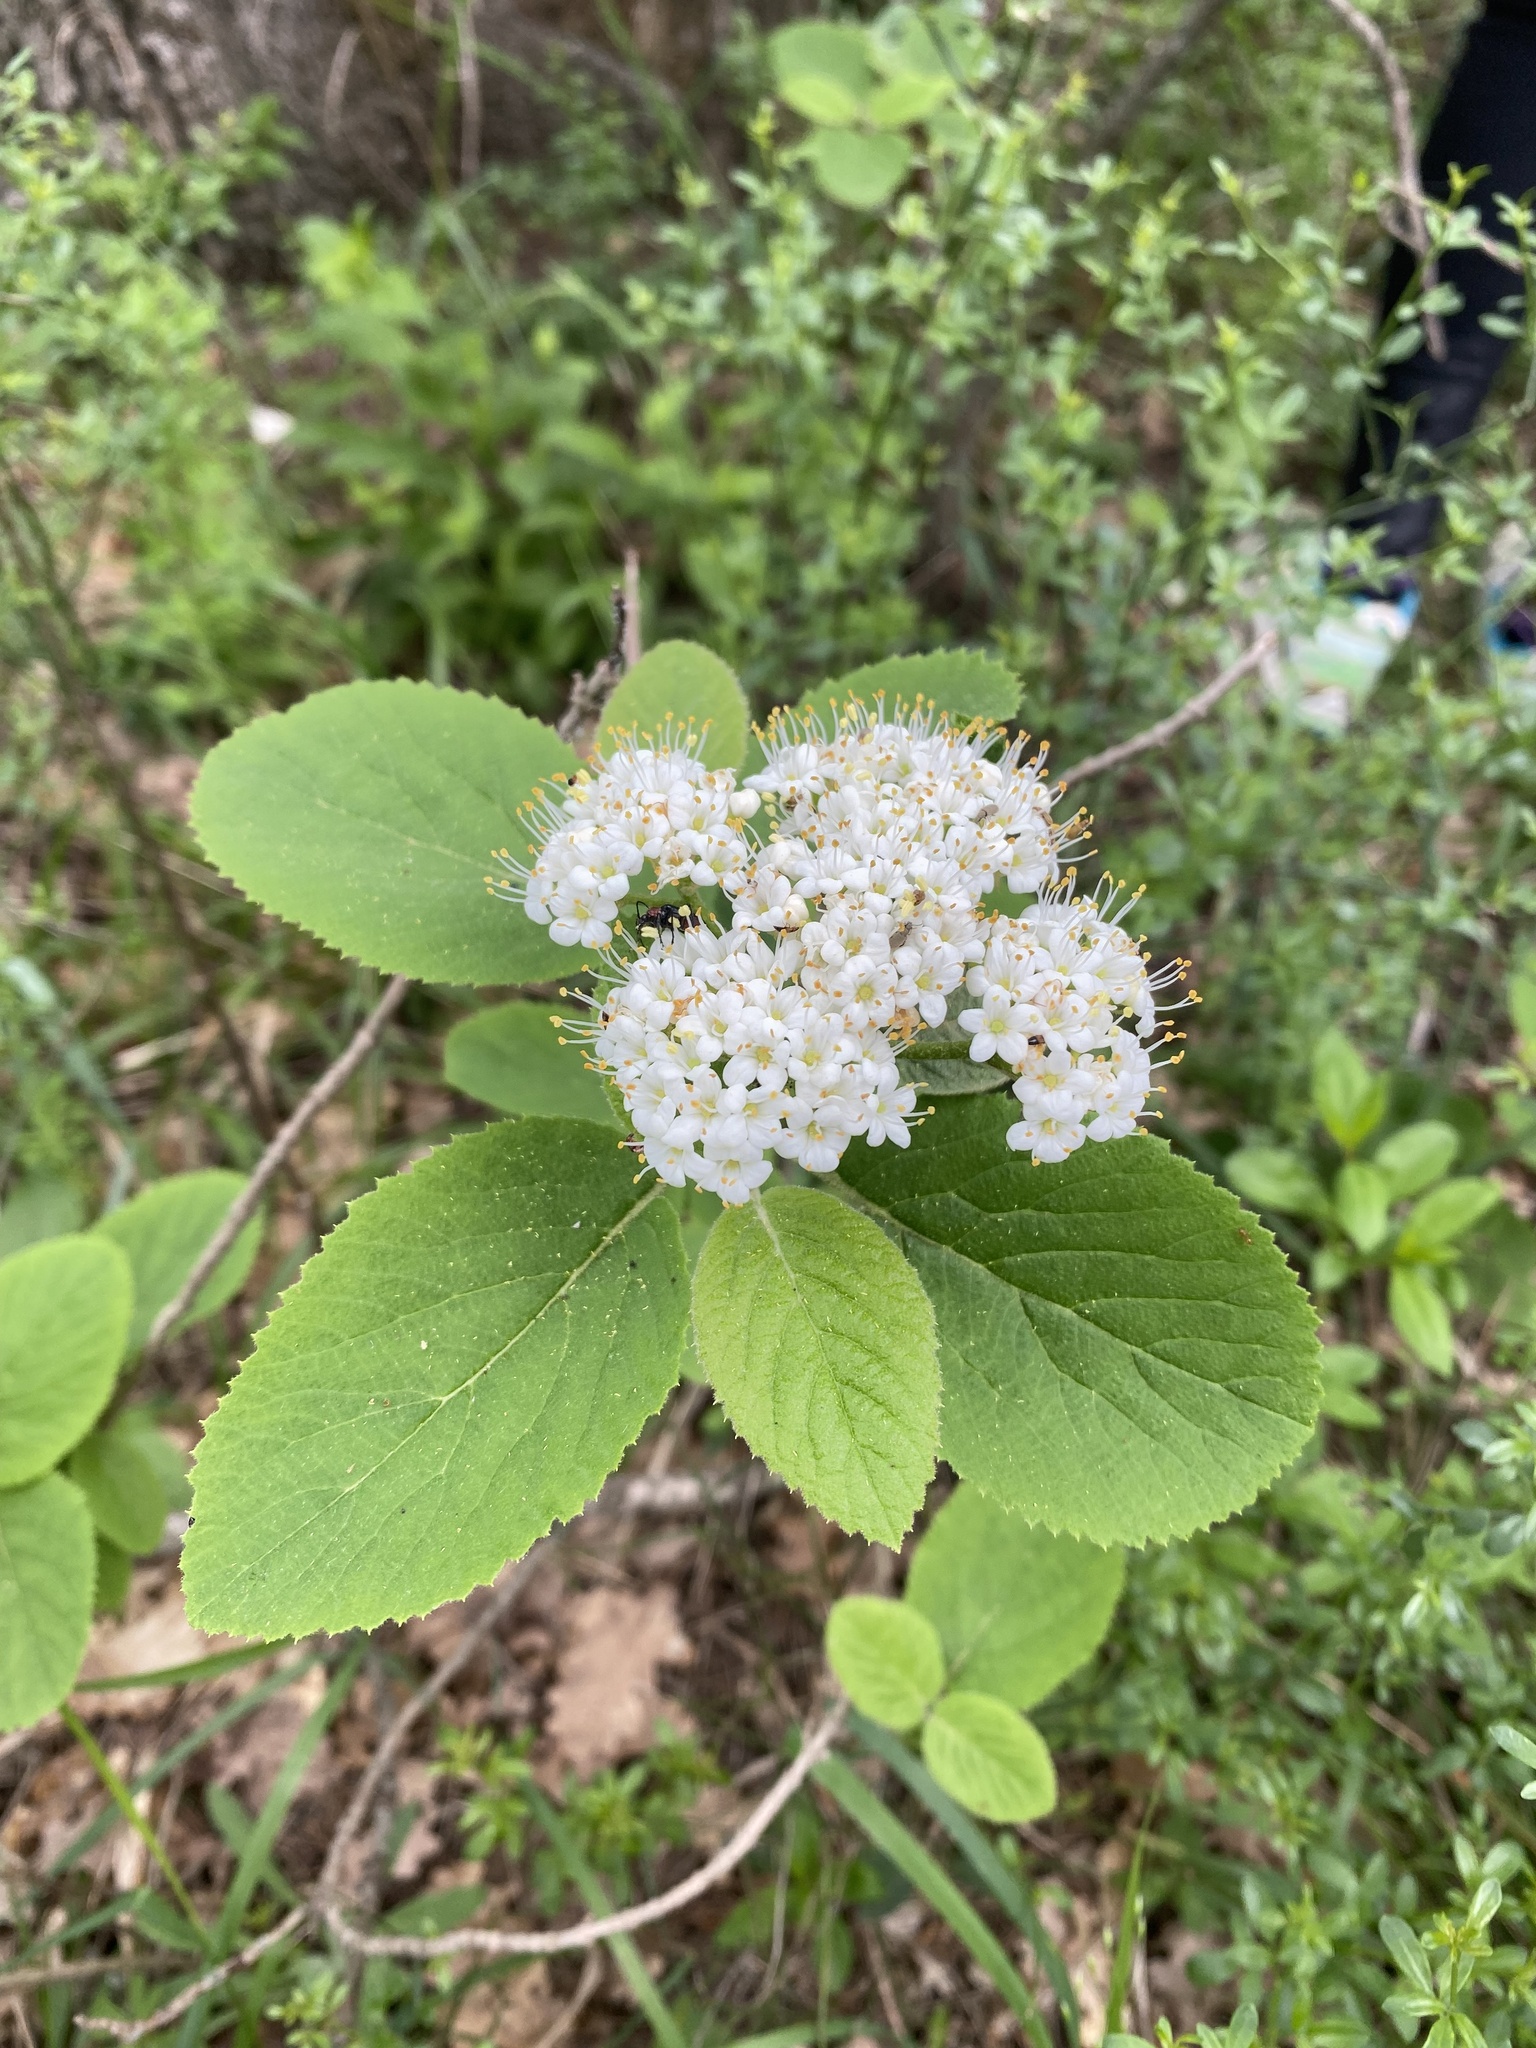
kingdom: Plantae
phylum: Tracheophyta
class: Magnoliopsida
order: Dipsacales
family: Viburnaceae
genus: Viburnum
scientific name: Viburnum lantana
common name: Wayfaring tree
